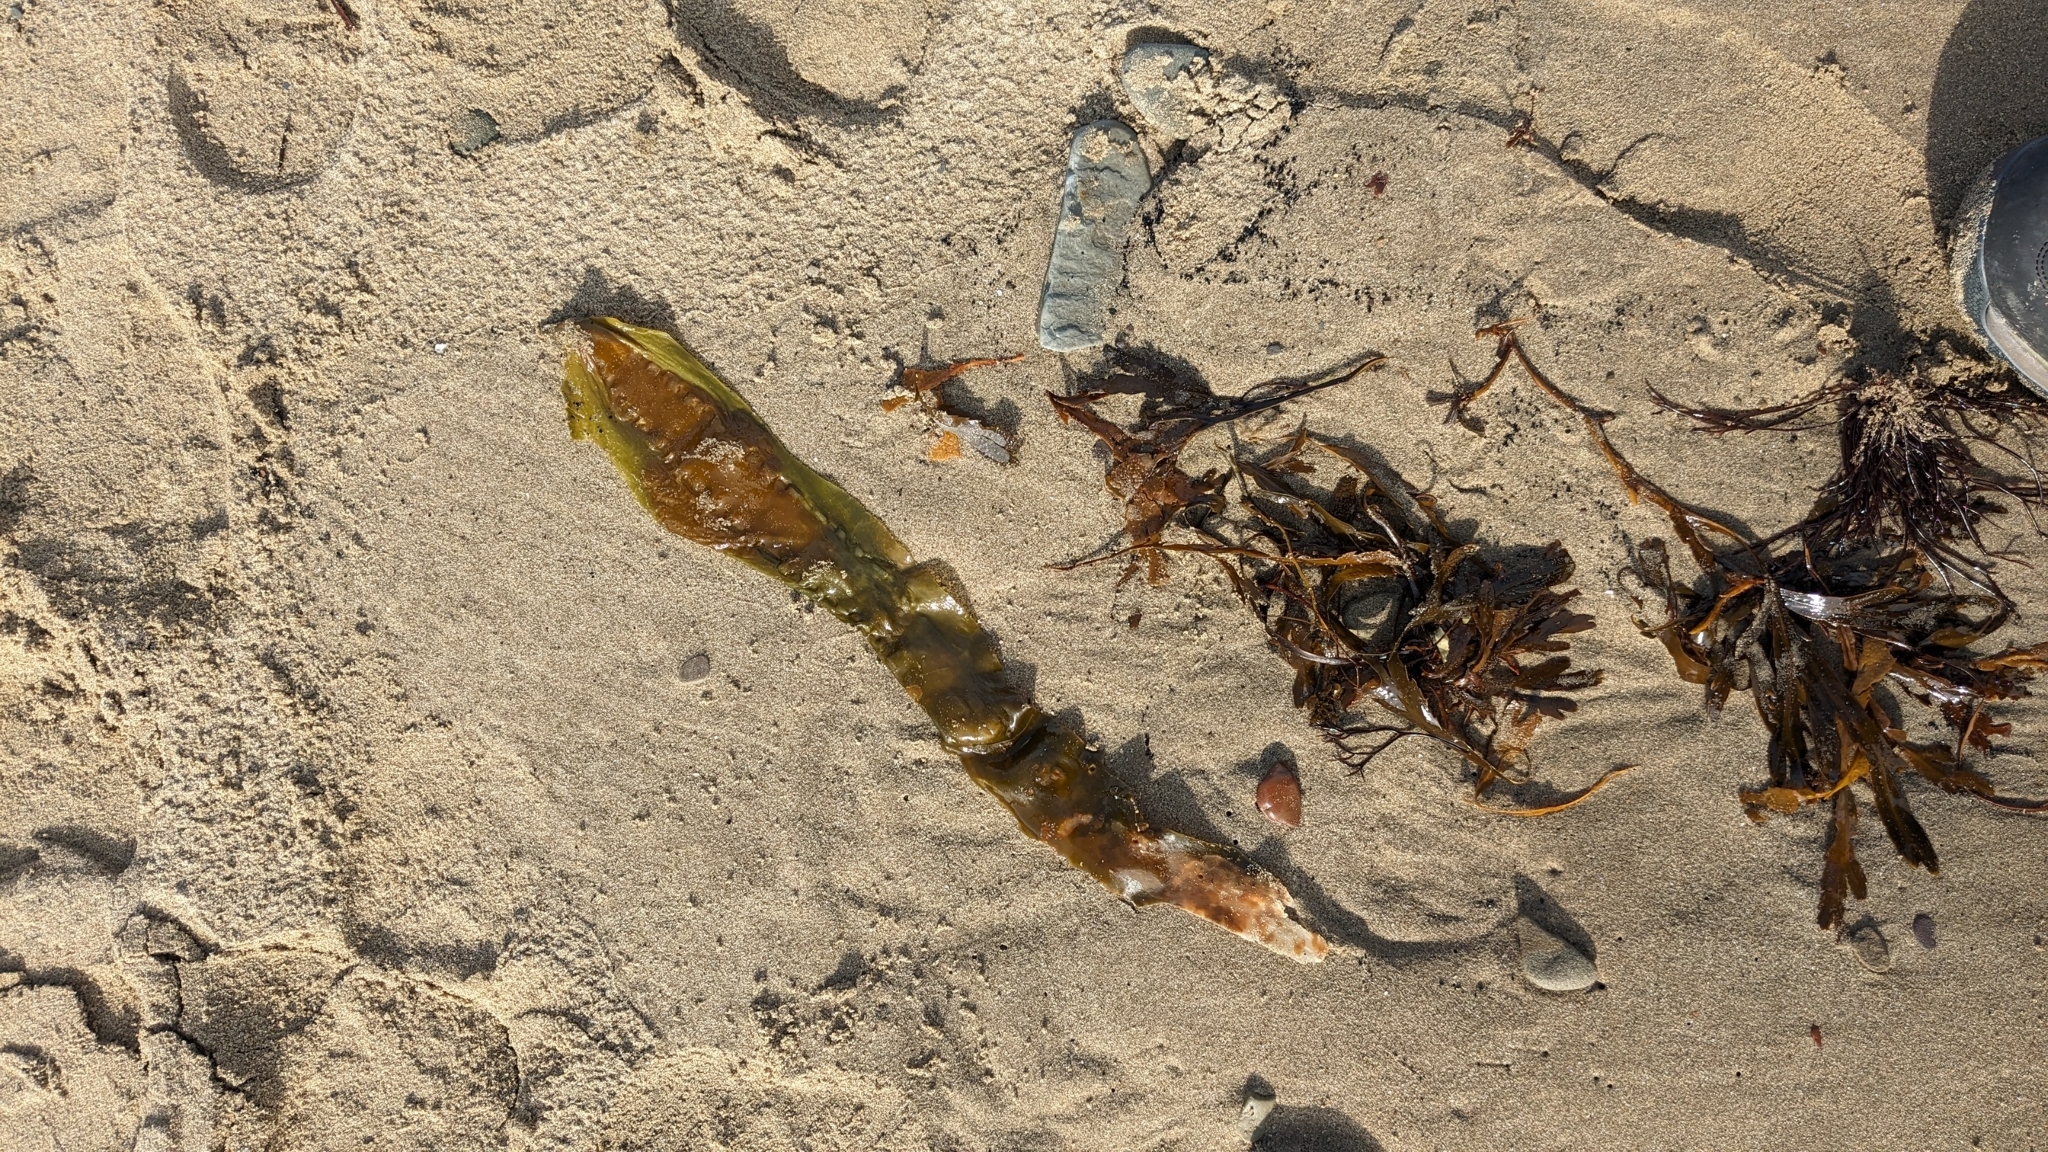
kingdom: Chromista
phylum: Ochrophyta
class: Phaeophyceae
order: Laminariales
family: Laminariaceae
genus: Saccharina
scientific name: Saccharina latissima
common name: Poor man's weather glass
